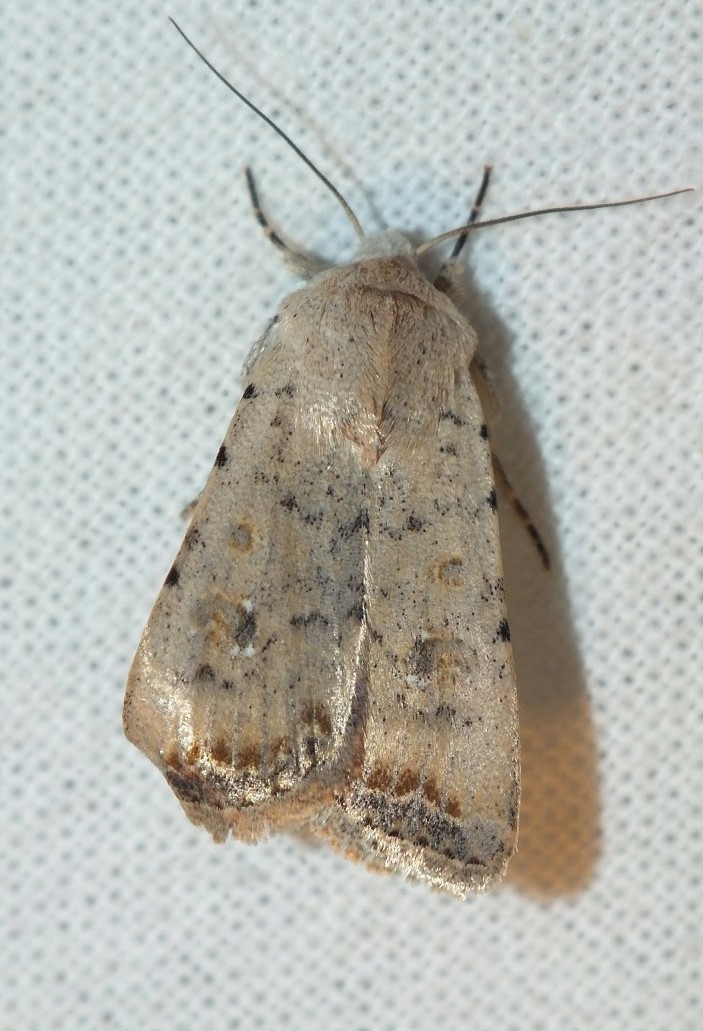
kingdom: Animalia
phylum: Arthropoda
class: Insecta
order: Lepidoptera
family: Noctuidae
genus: Caradrina
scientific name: Caradrina albina
